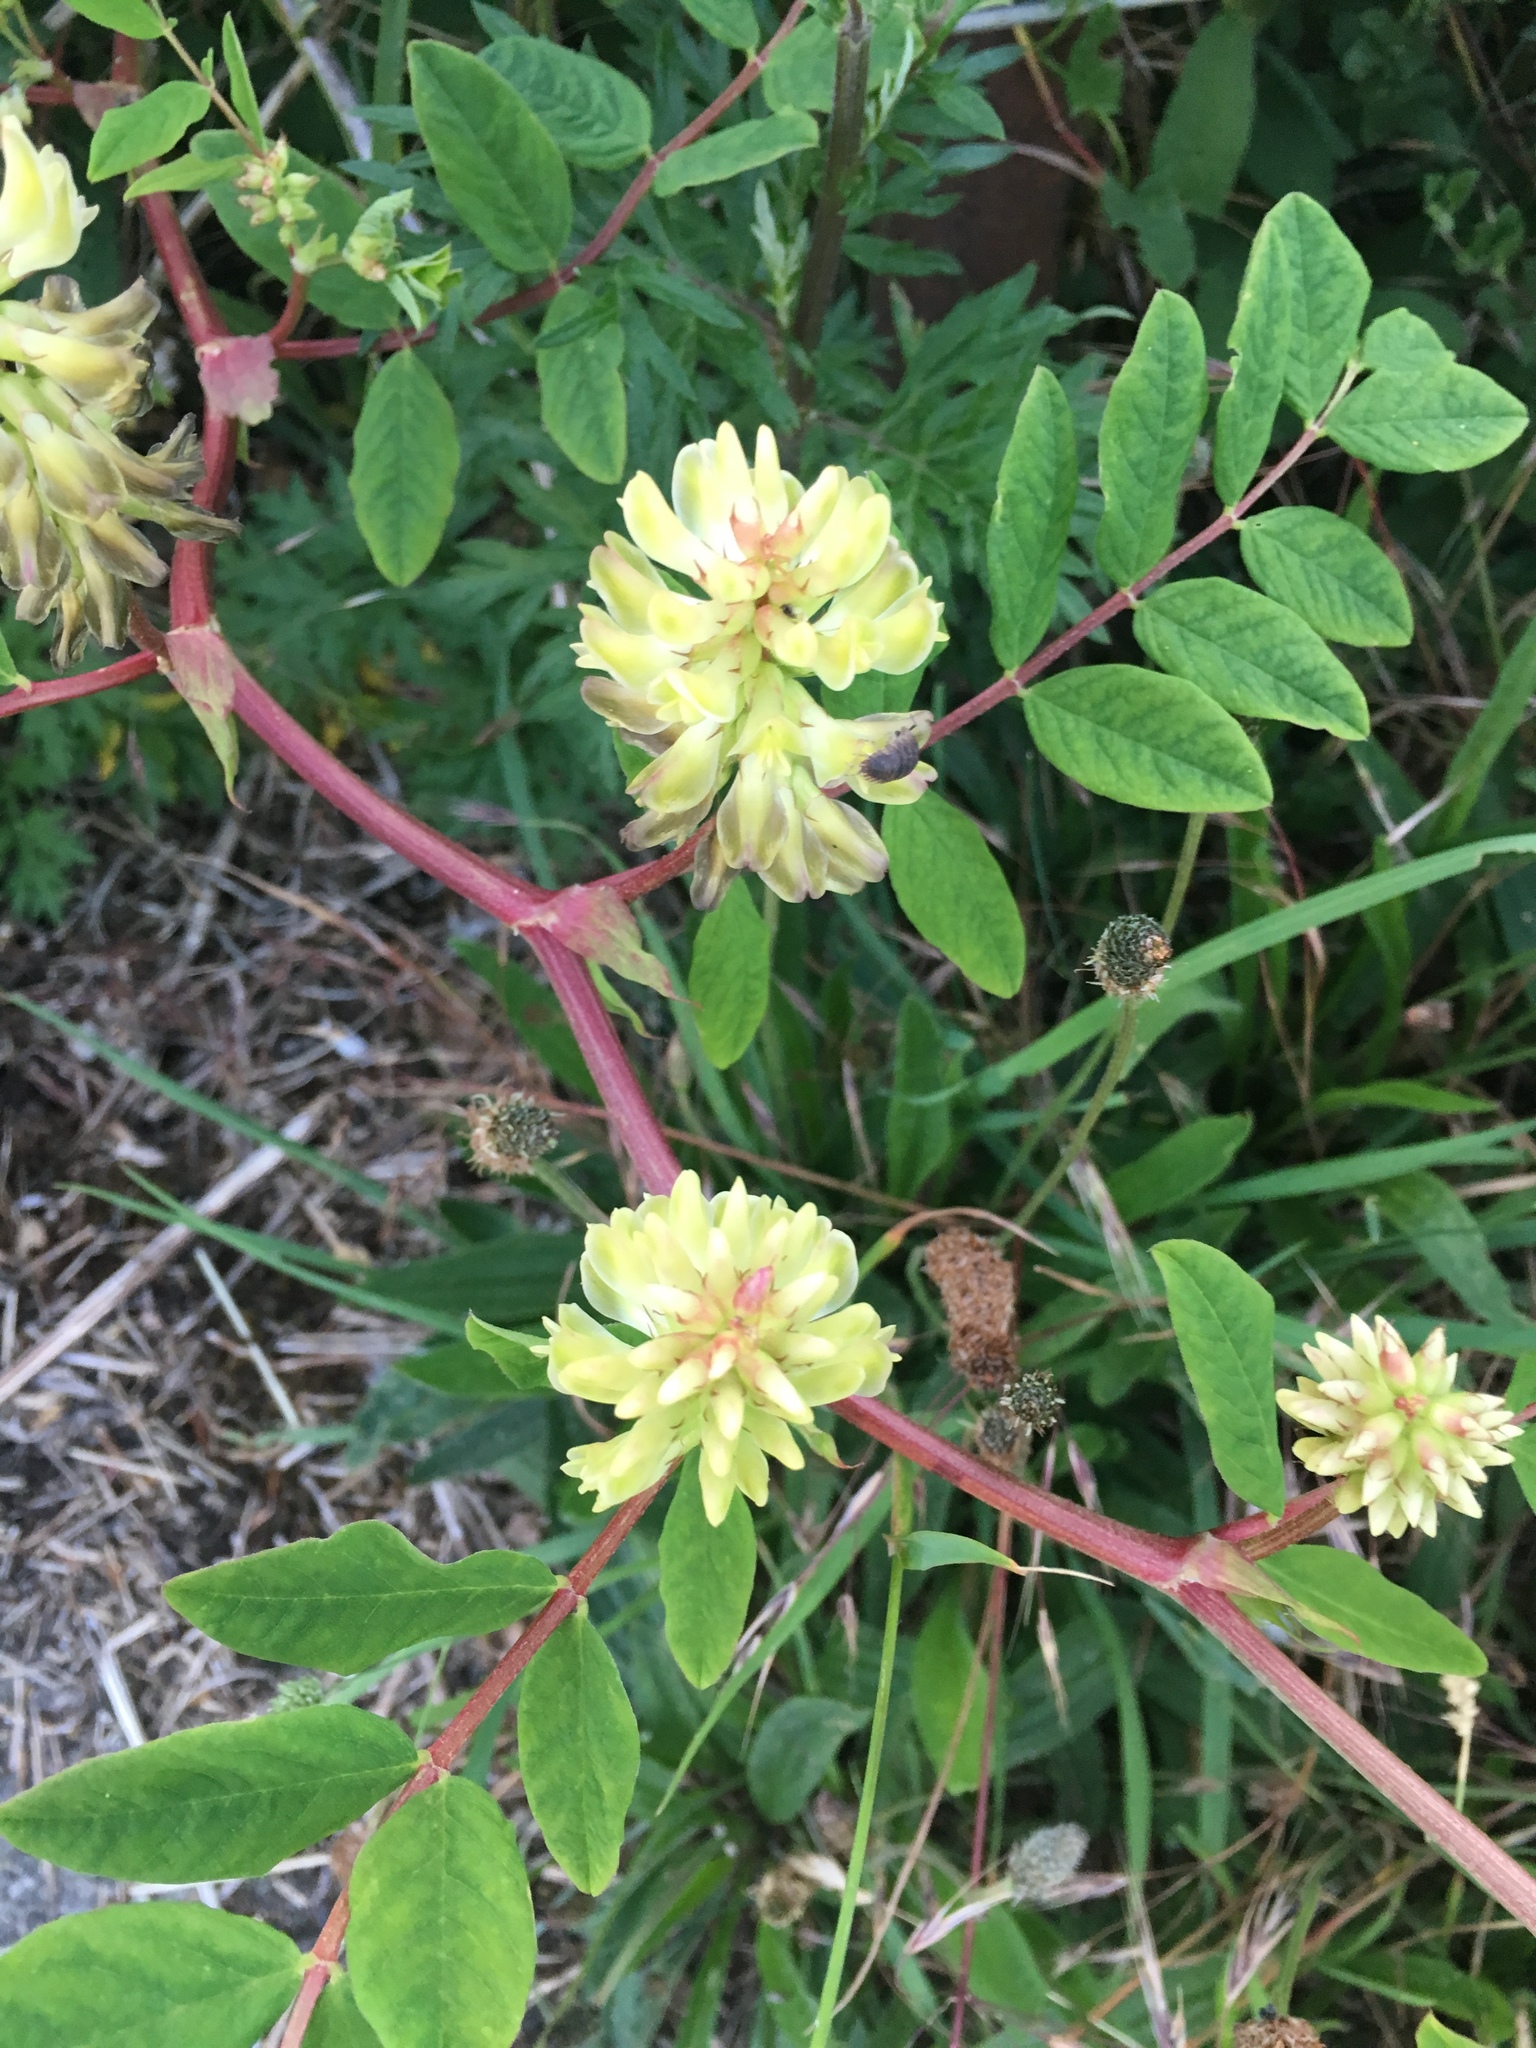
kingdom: Plantae
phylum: Tracheophyta
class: Magnoliopsida
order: Fabales
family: Fabaceae
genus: Astragalus
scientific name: Astragalus glycyphyllos
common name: Wild liquorice
